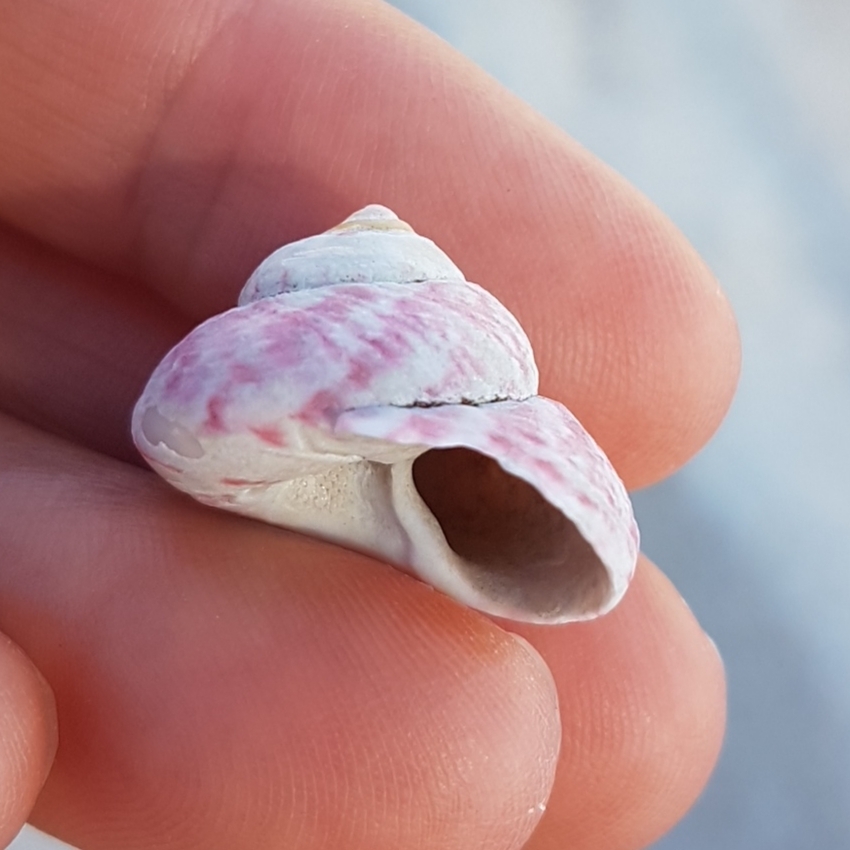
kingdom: Animalia
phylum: Mollusca
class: Gastropoda
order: Trochida
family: Trochidae
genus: Gibbula
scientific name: Gibbula magus
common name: Turban top shell
